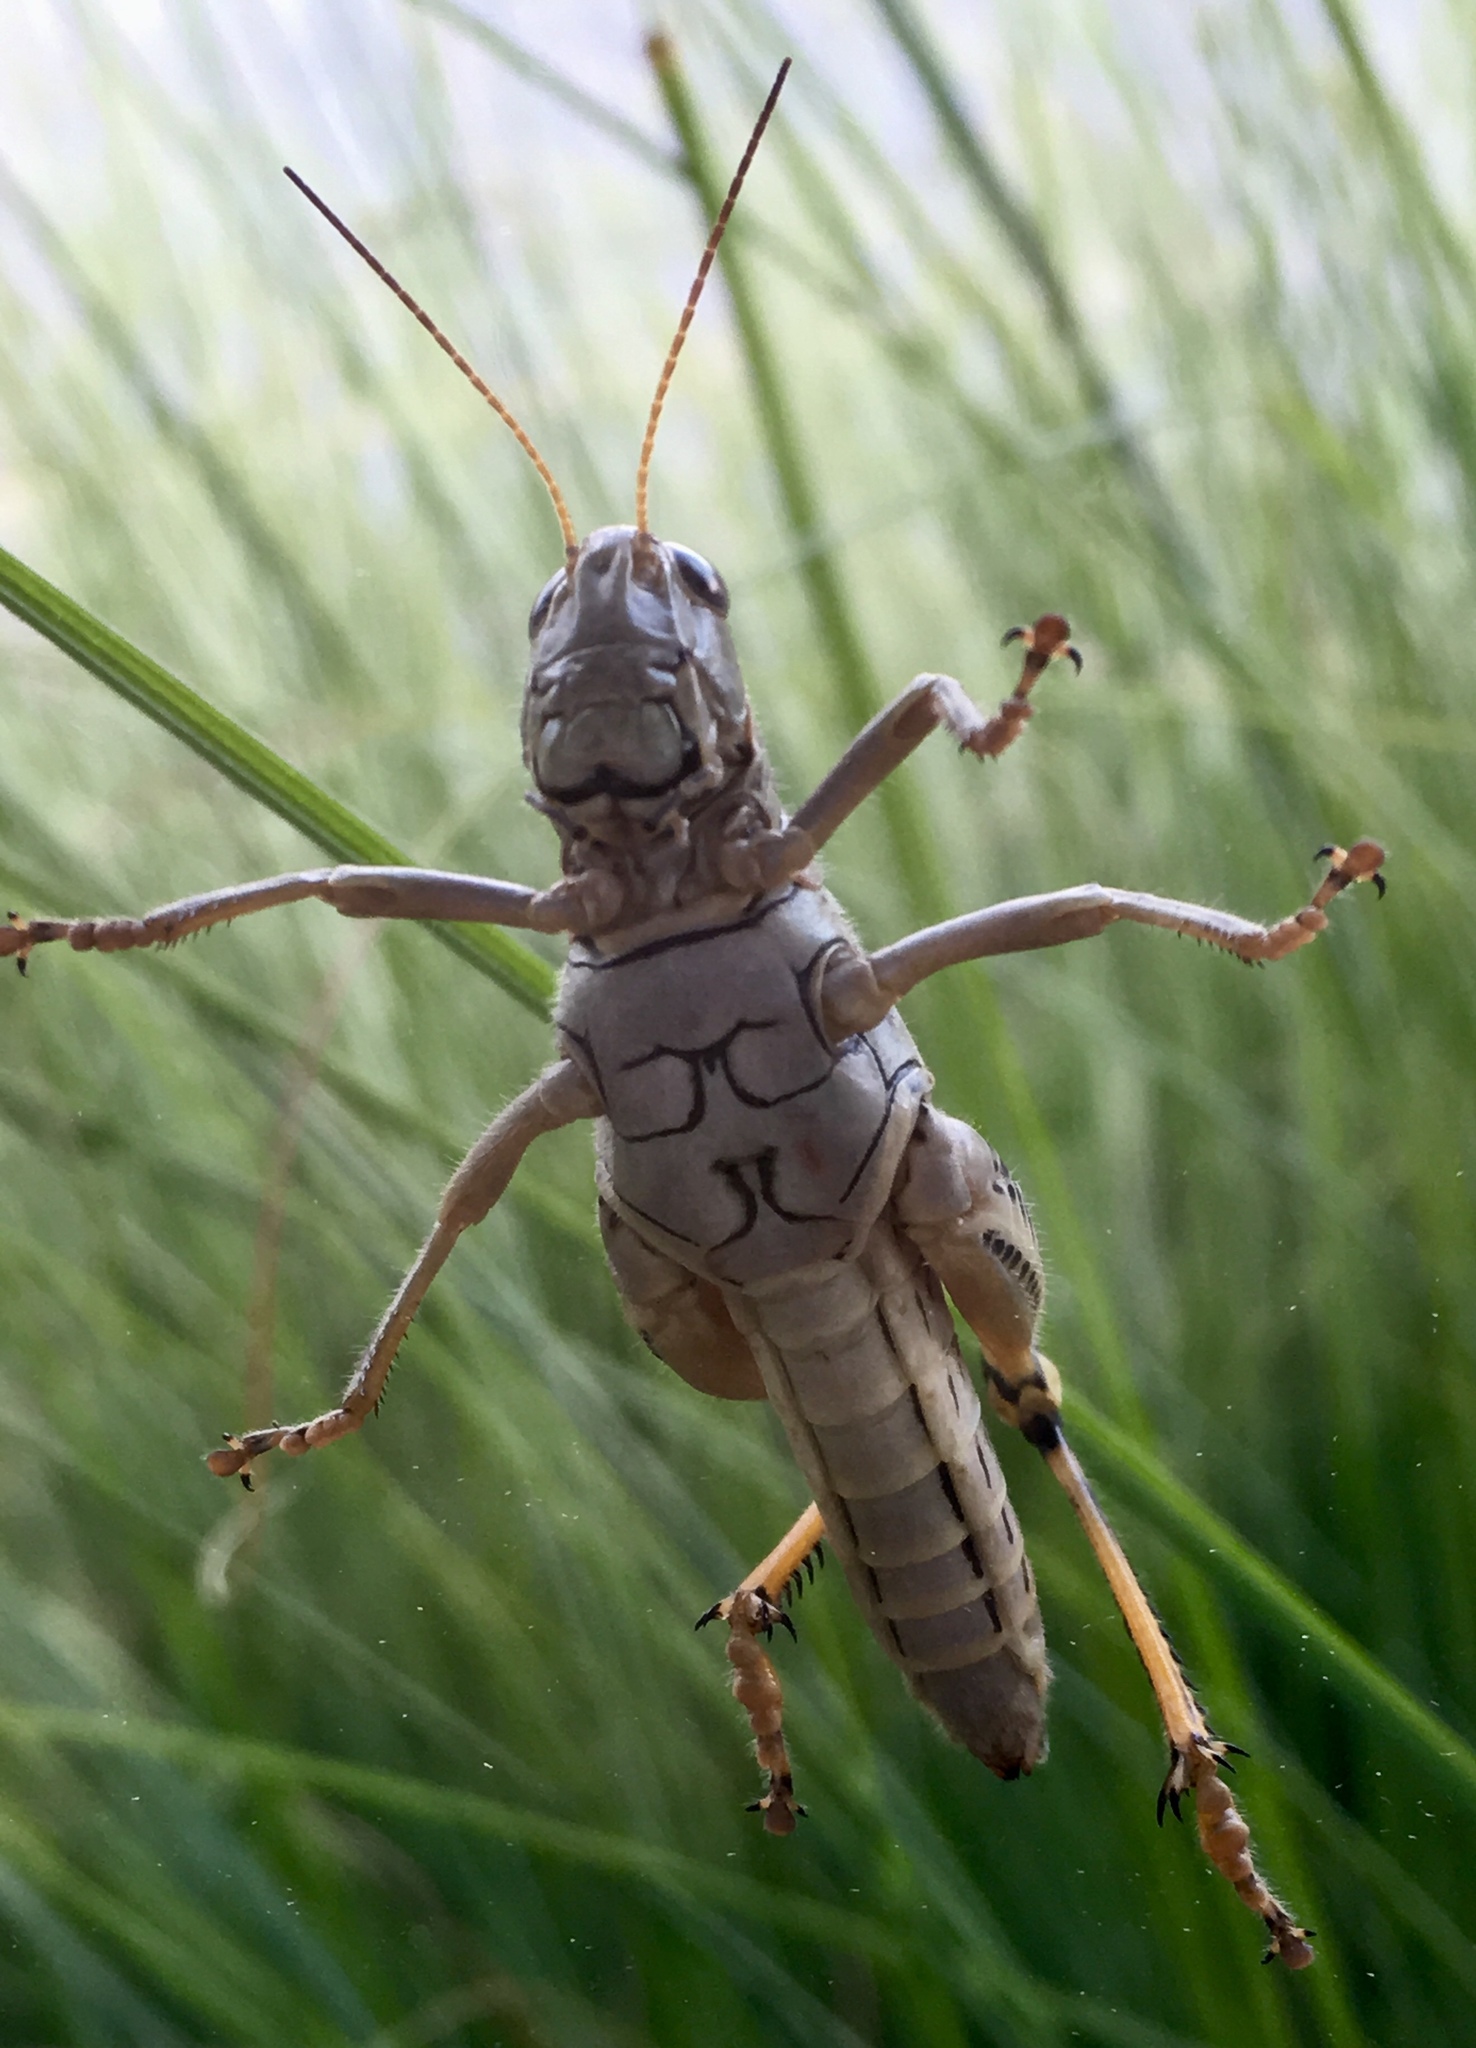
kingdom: Animalia
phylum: Arthropoda
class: Insecta
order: Orthoptera
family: Acrididae
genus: Melanoplus
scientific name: Melanoplus differentialis
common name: Differential grasshopper
